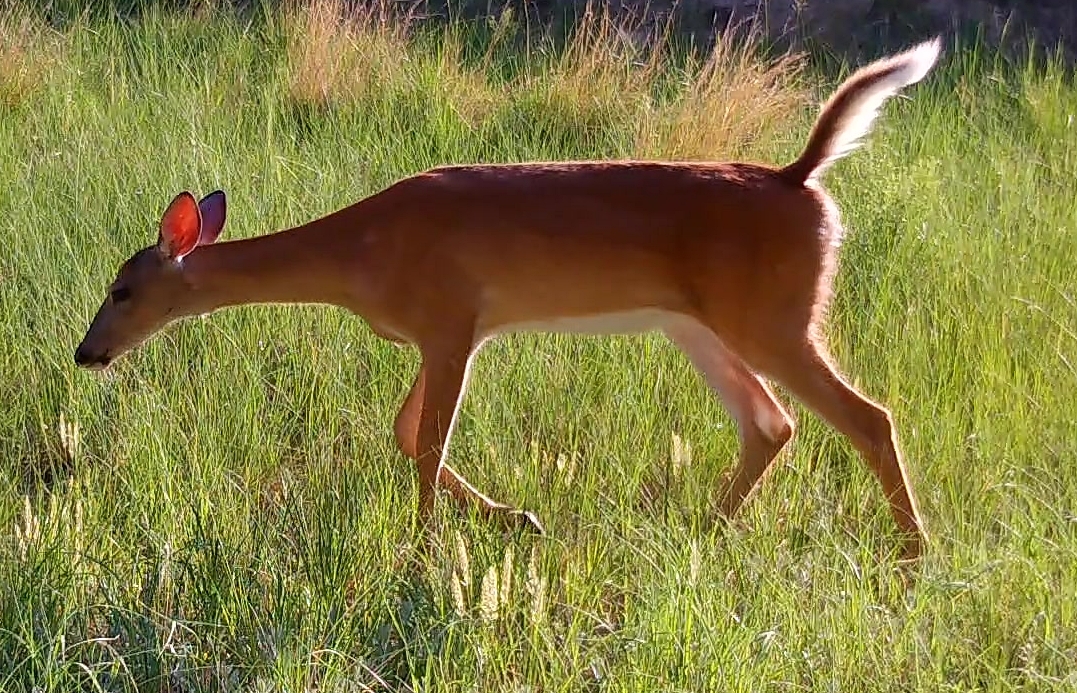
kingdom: Animalia
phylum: Chordata
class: Mammalia
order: Artiodactyla
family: Cervidae
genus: Odocoileus
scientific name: Odocoileus virginianus
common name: White-tailed deer
